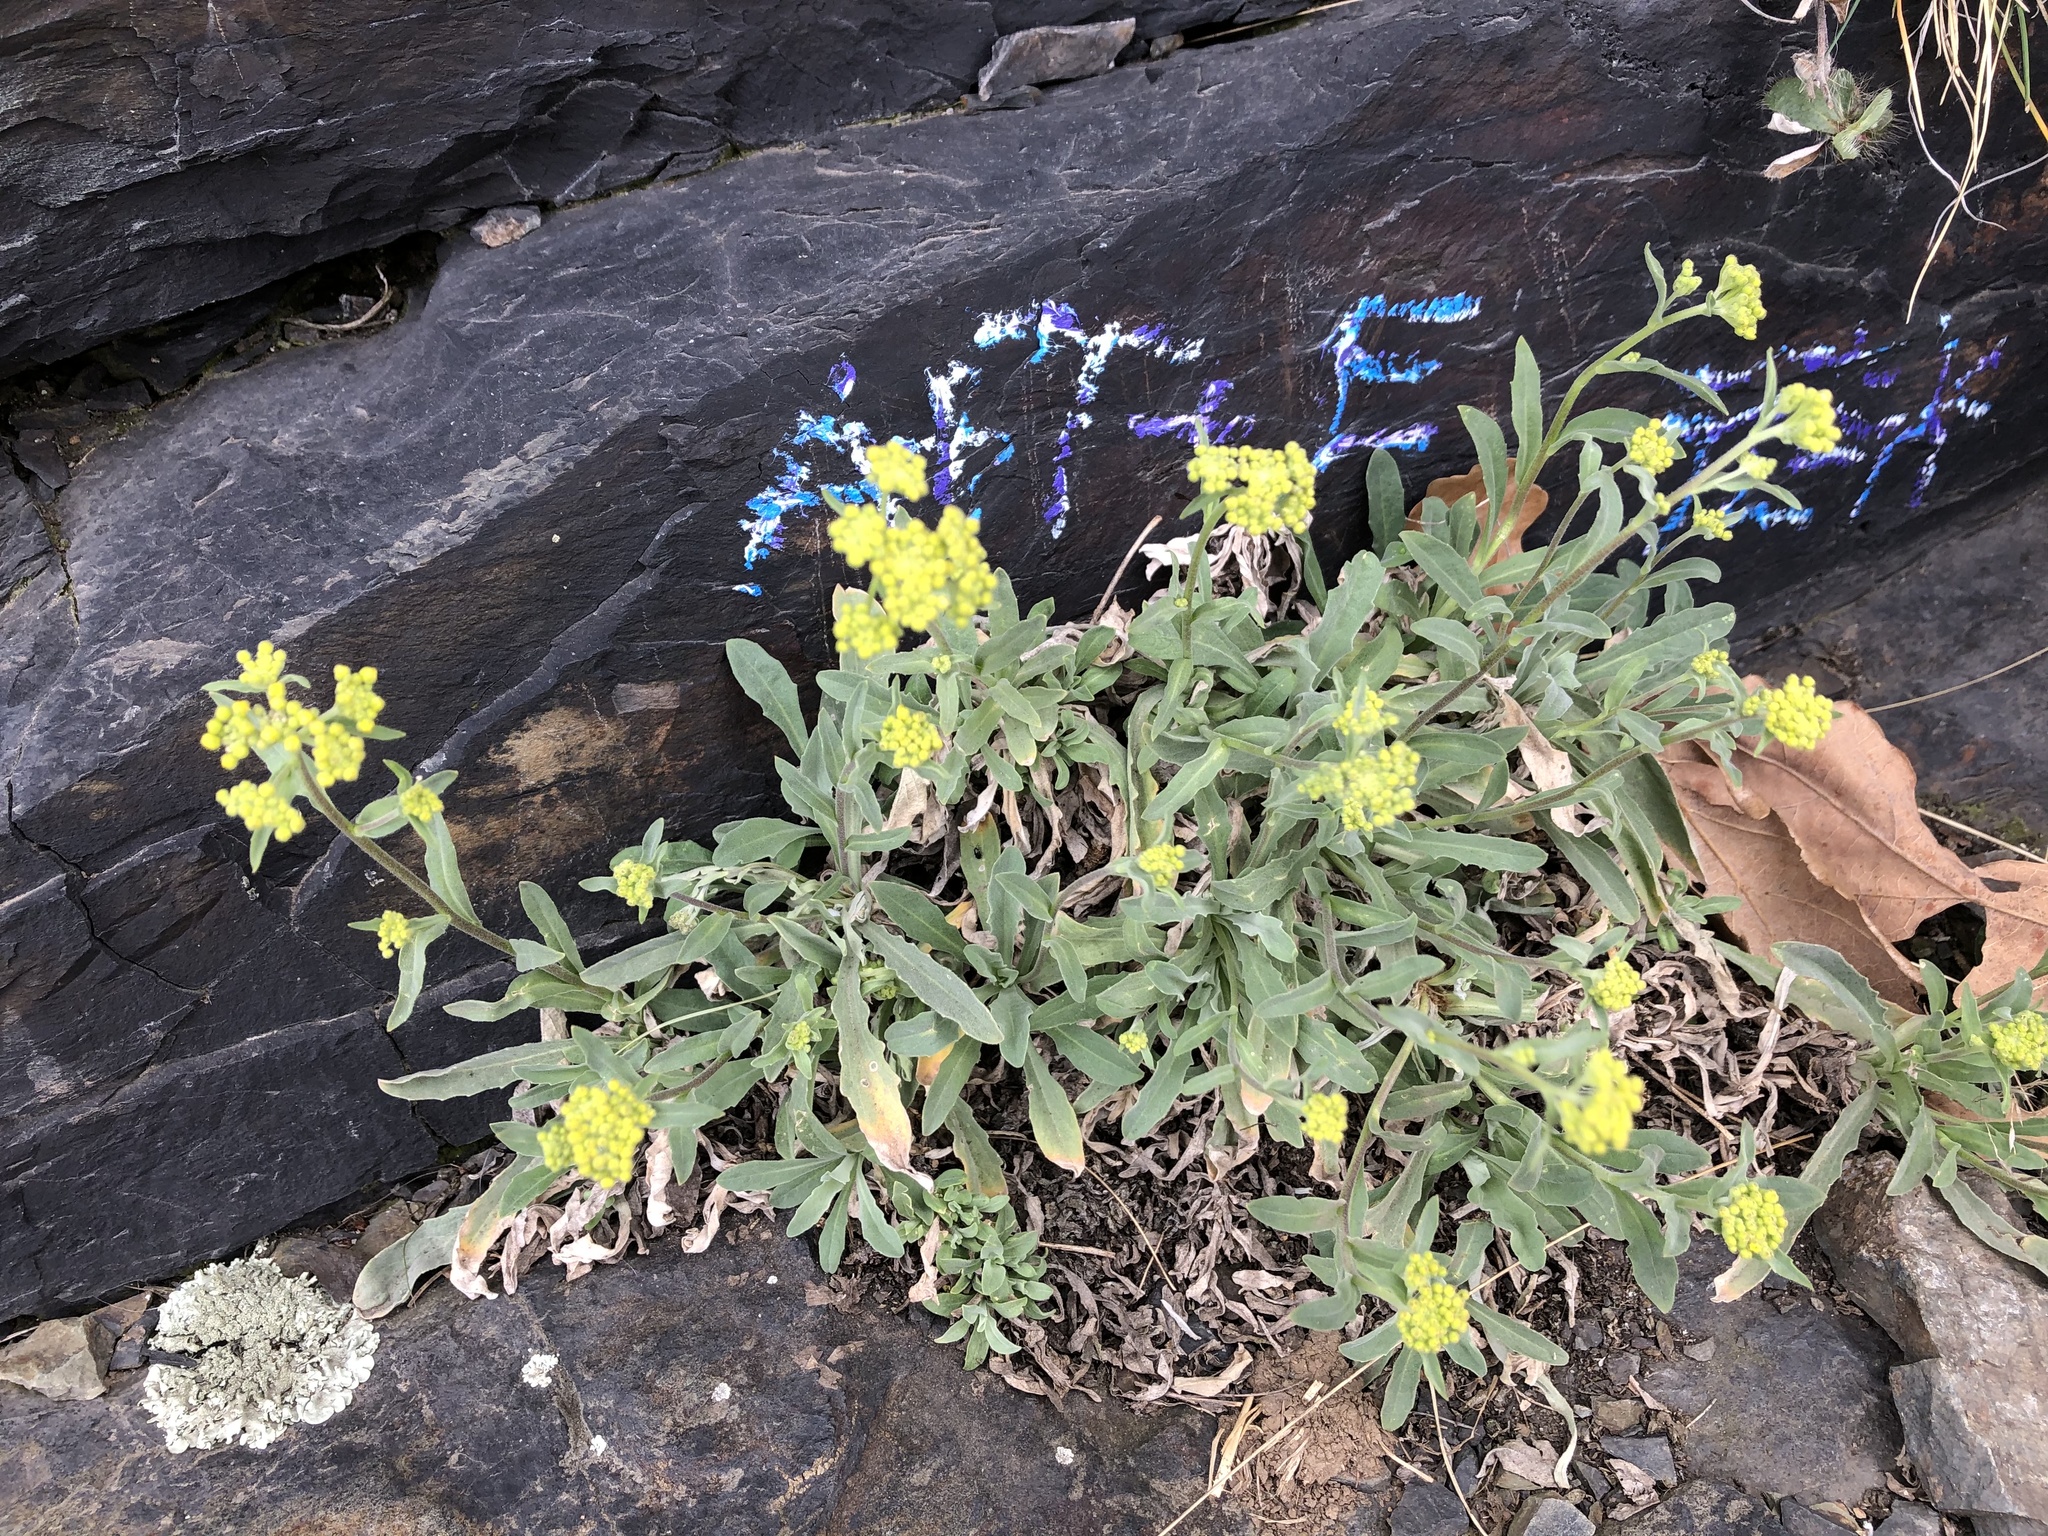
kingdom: Plantae
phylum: Tracheophyta
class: Magnoliopsida
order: Brassicales
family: Brassicaceae
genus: Aurinia
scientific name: Aurinia saxatilis
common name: Golden-tuft alyssum
